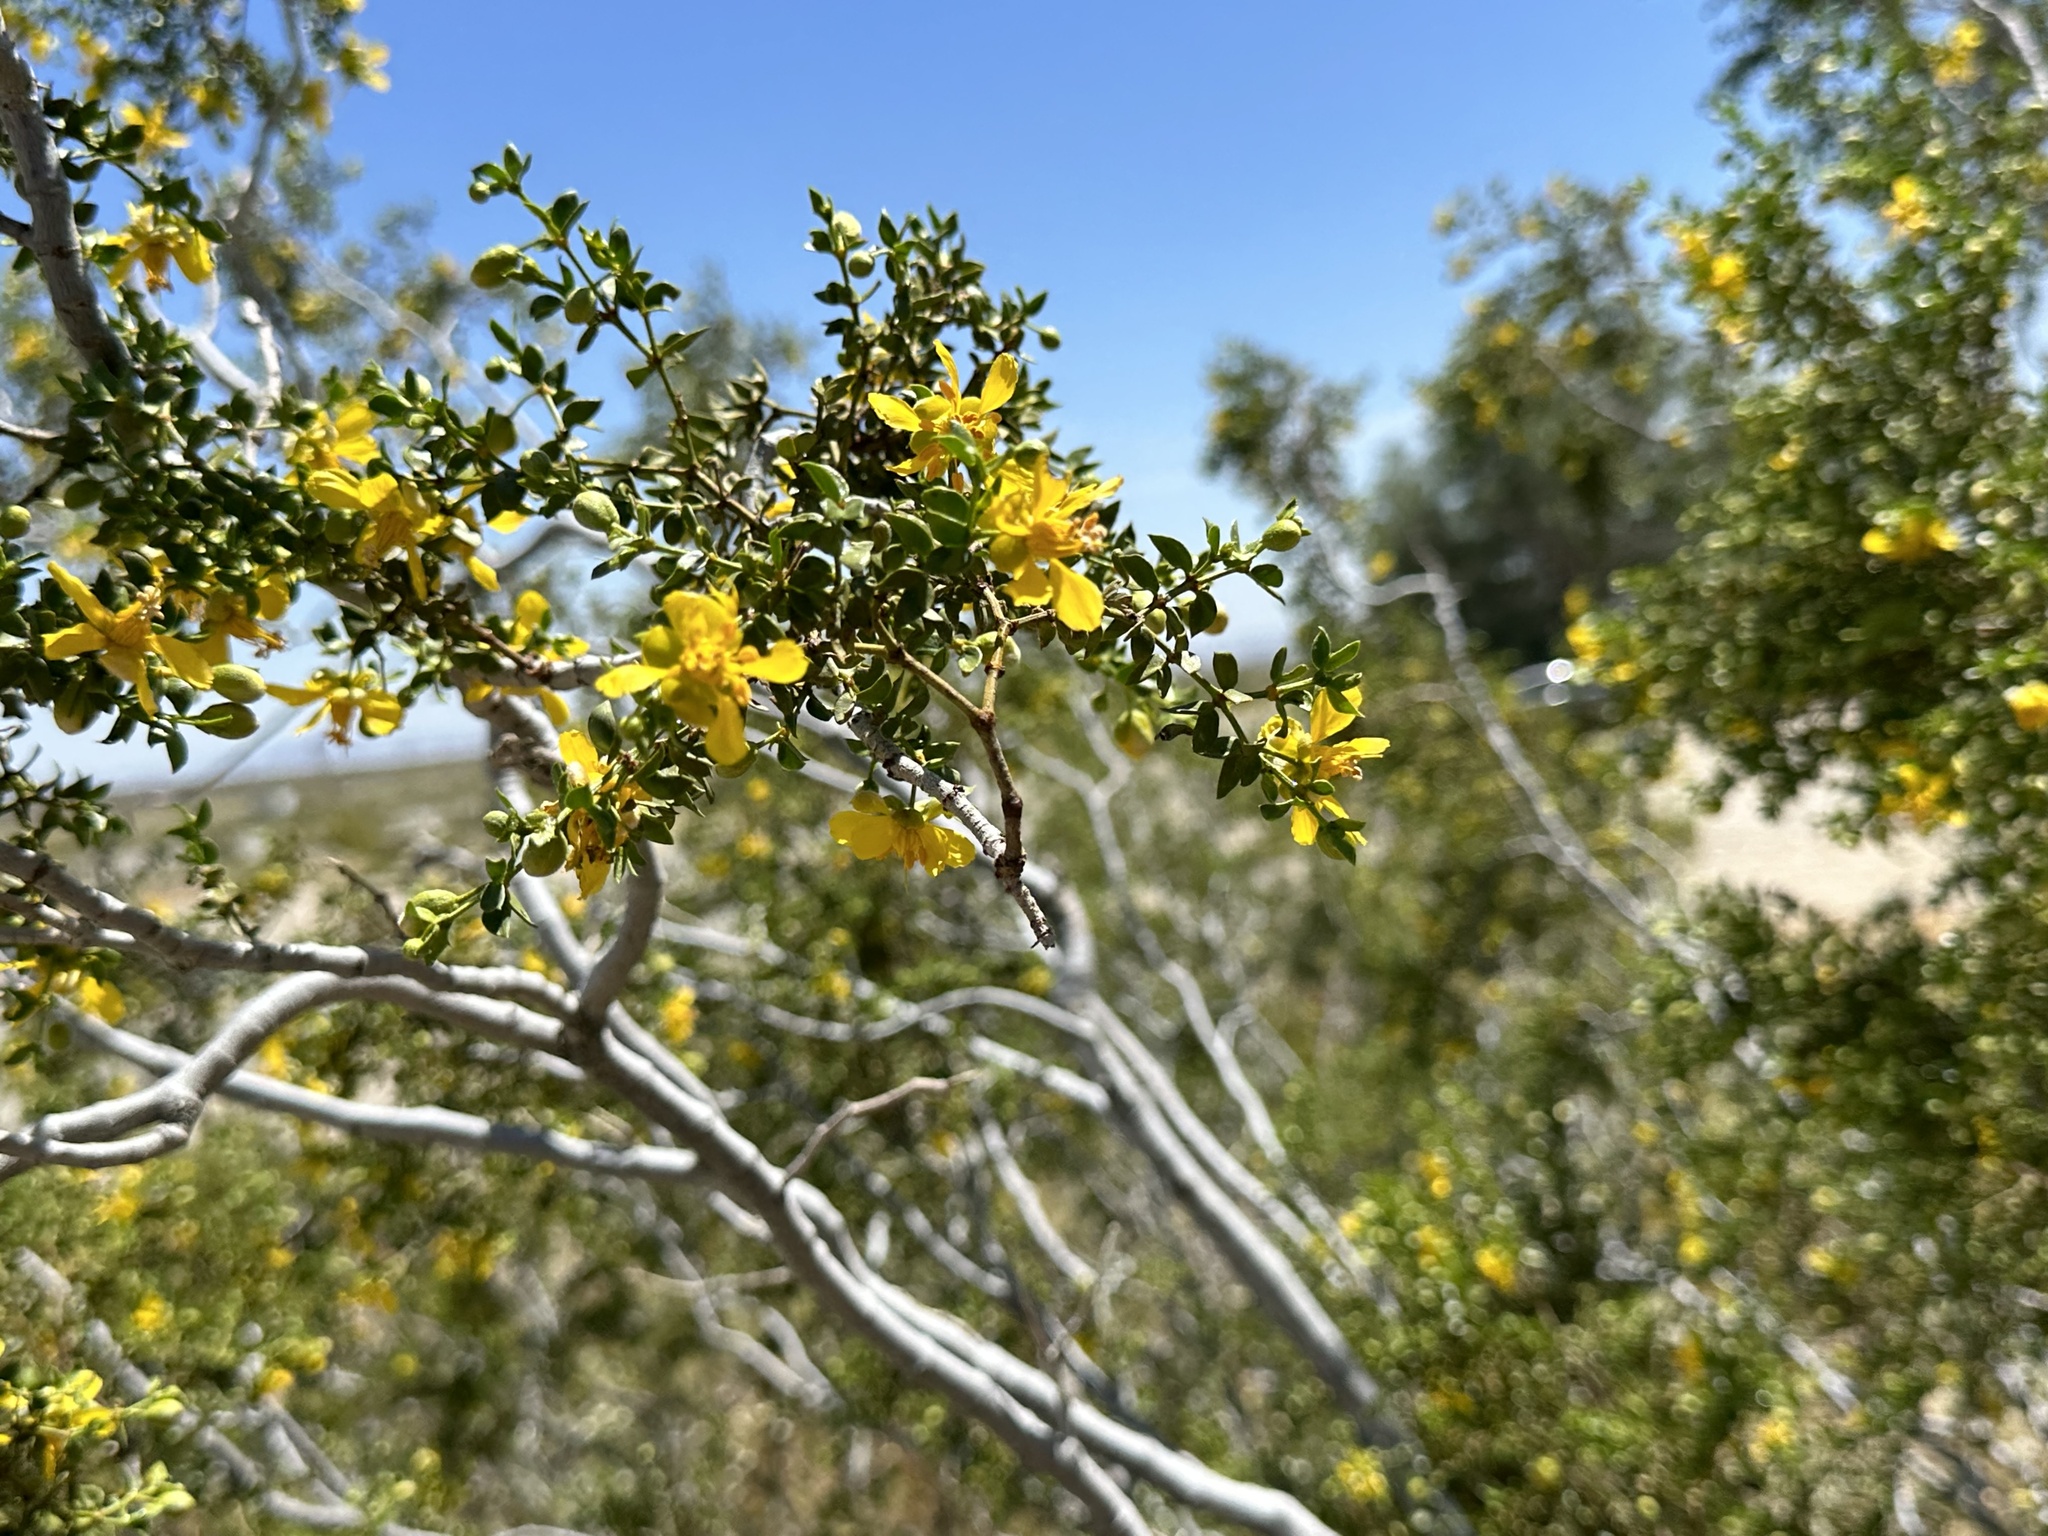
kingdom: Plantae
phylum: Tracheophyta
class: Magnoliopsida
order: Zygophyllales
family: Zygophyllaceae
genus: Larrea
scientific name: Larrea tridentata
